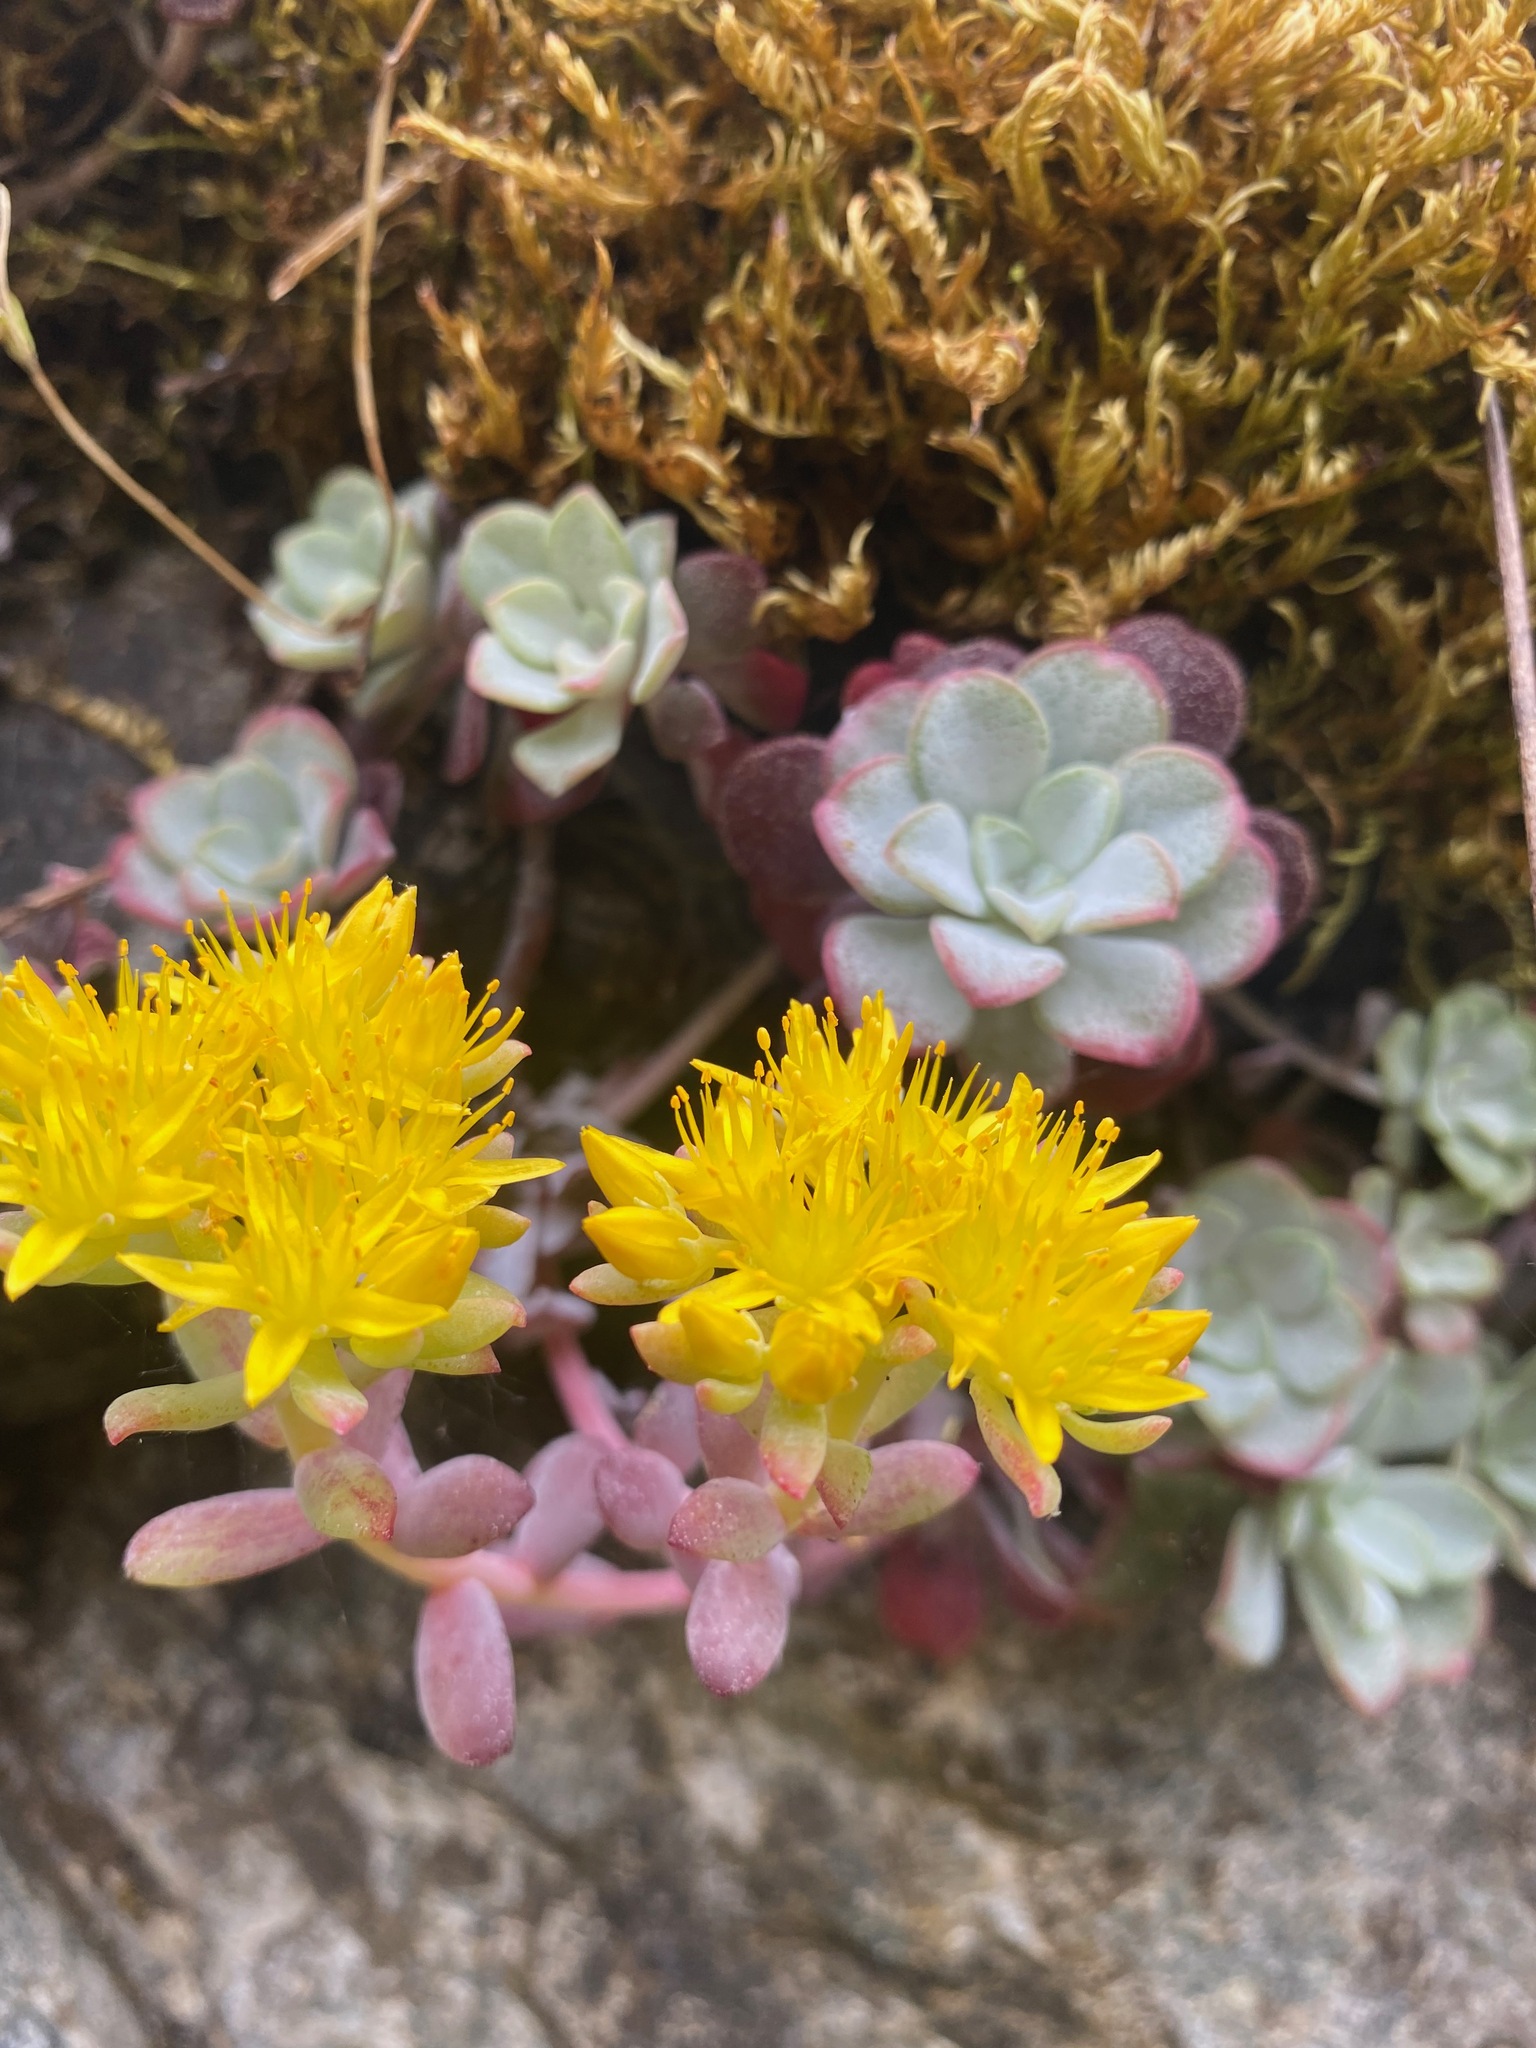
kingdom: Plantae
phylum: Tracheophyta
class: Magnoliopsida
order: Saxifragales
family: Crassulaceae
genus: Sedum
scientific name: Sedum spathulifolium
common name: Colorado stonecrop
